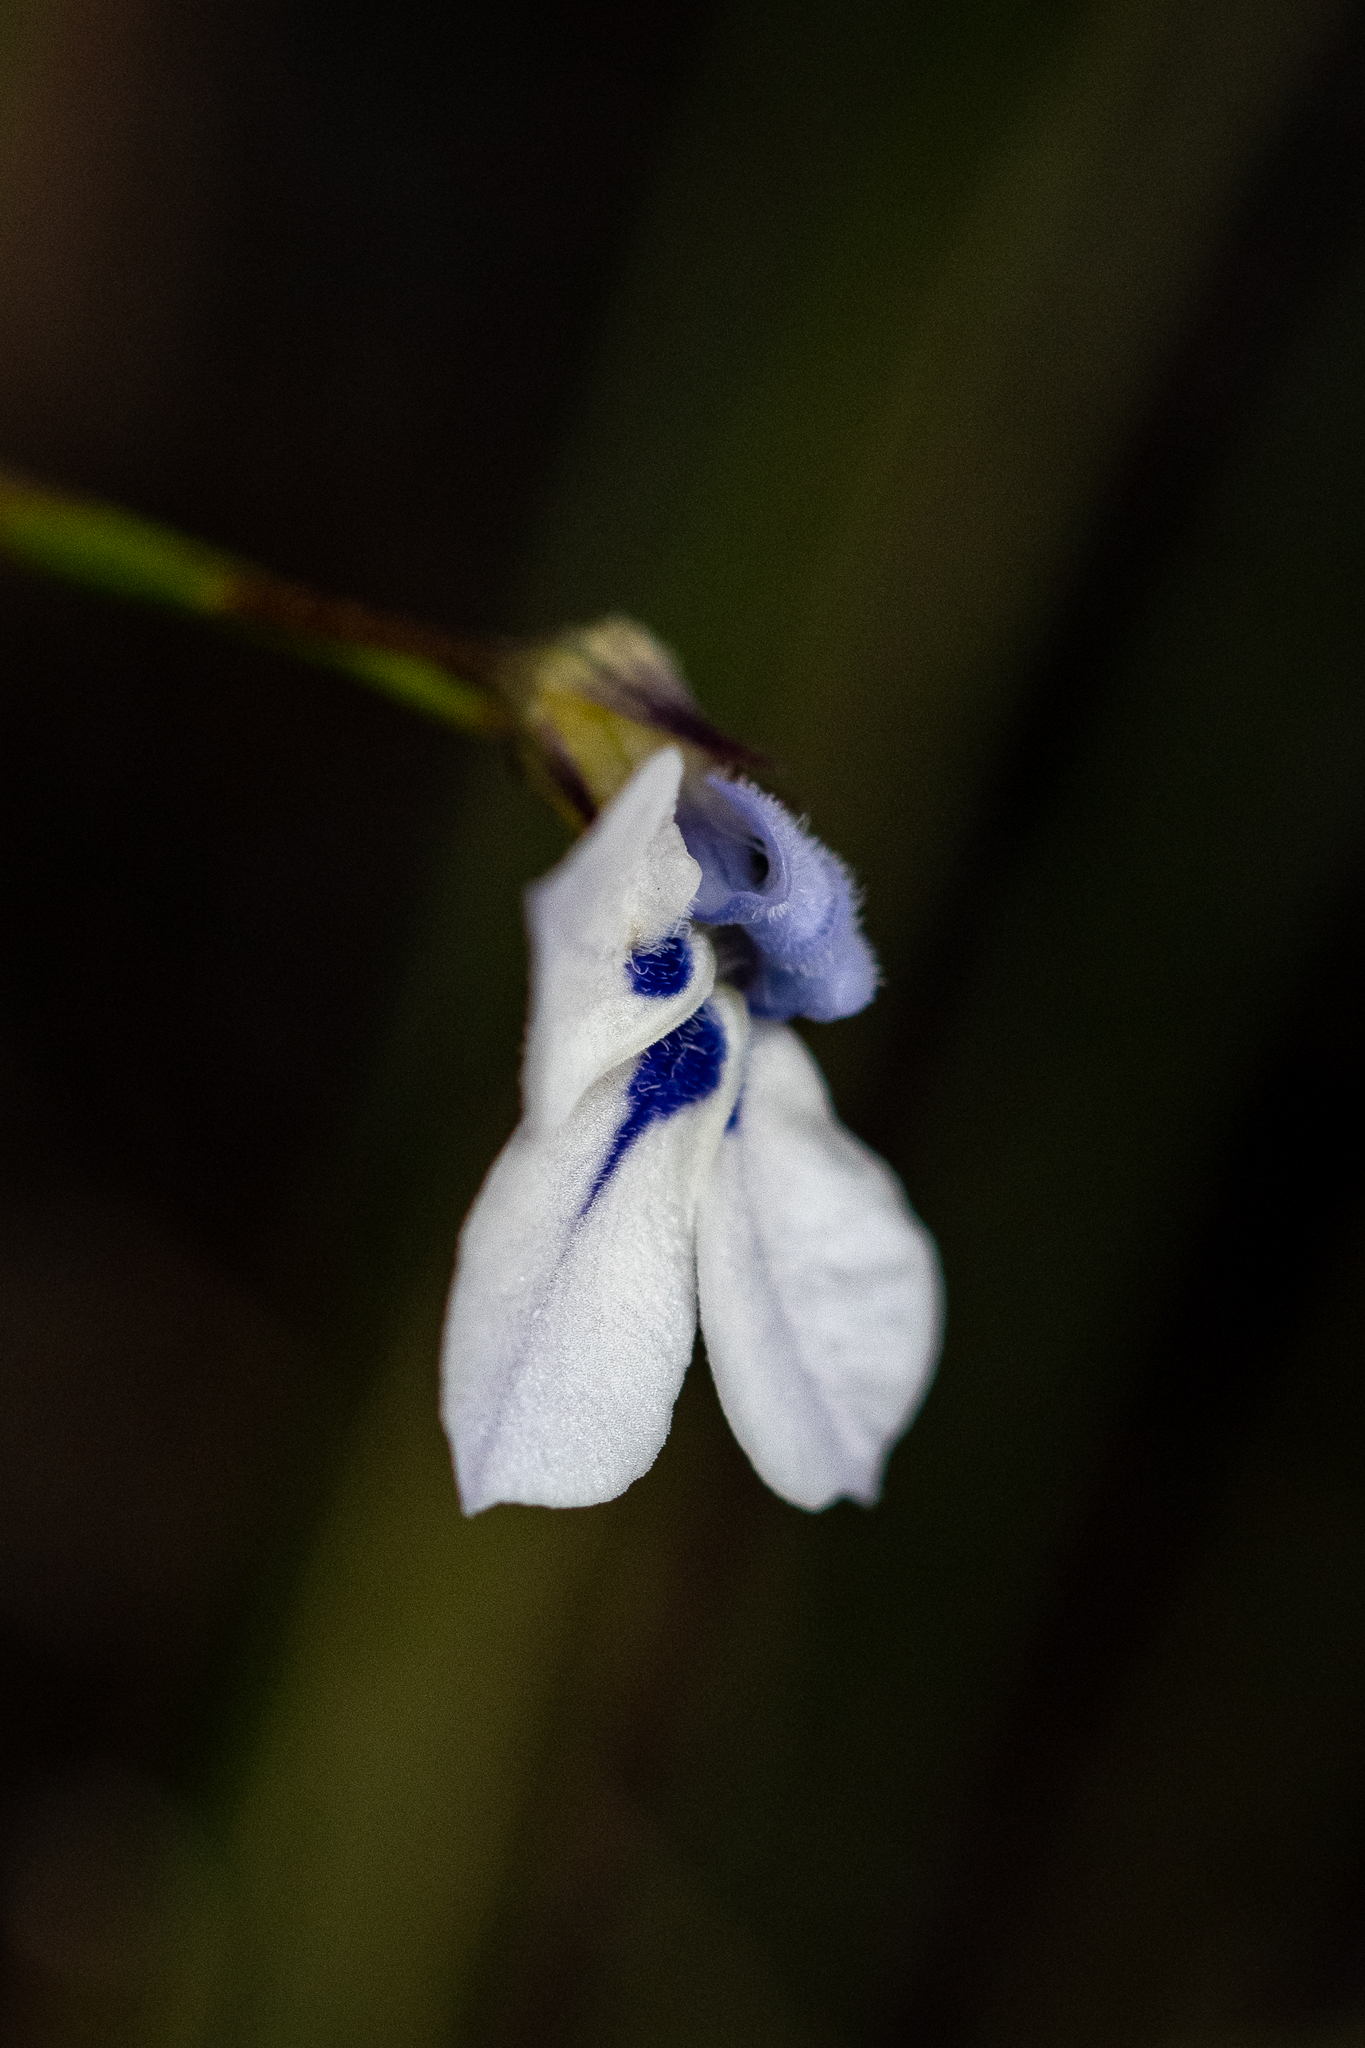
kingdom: Plantae
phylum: Tracheophyta
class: Magnoliopsida
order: Asterales
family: Campanulaceae
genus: Lobelia
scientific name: Lobelia setacea
